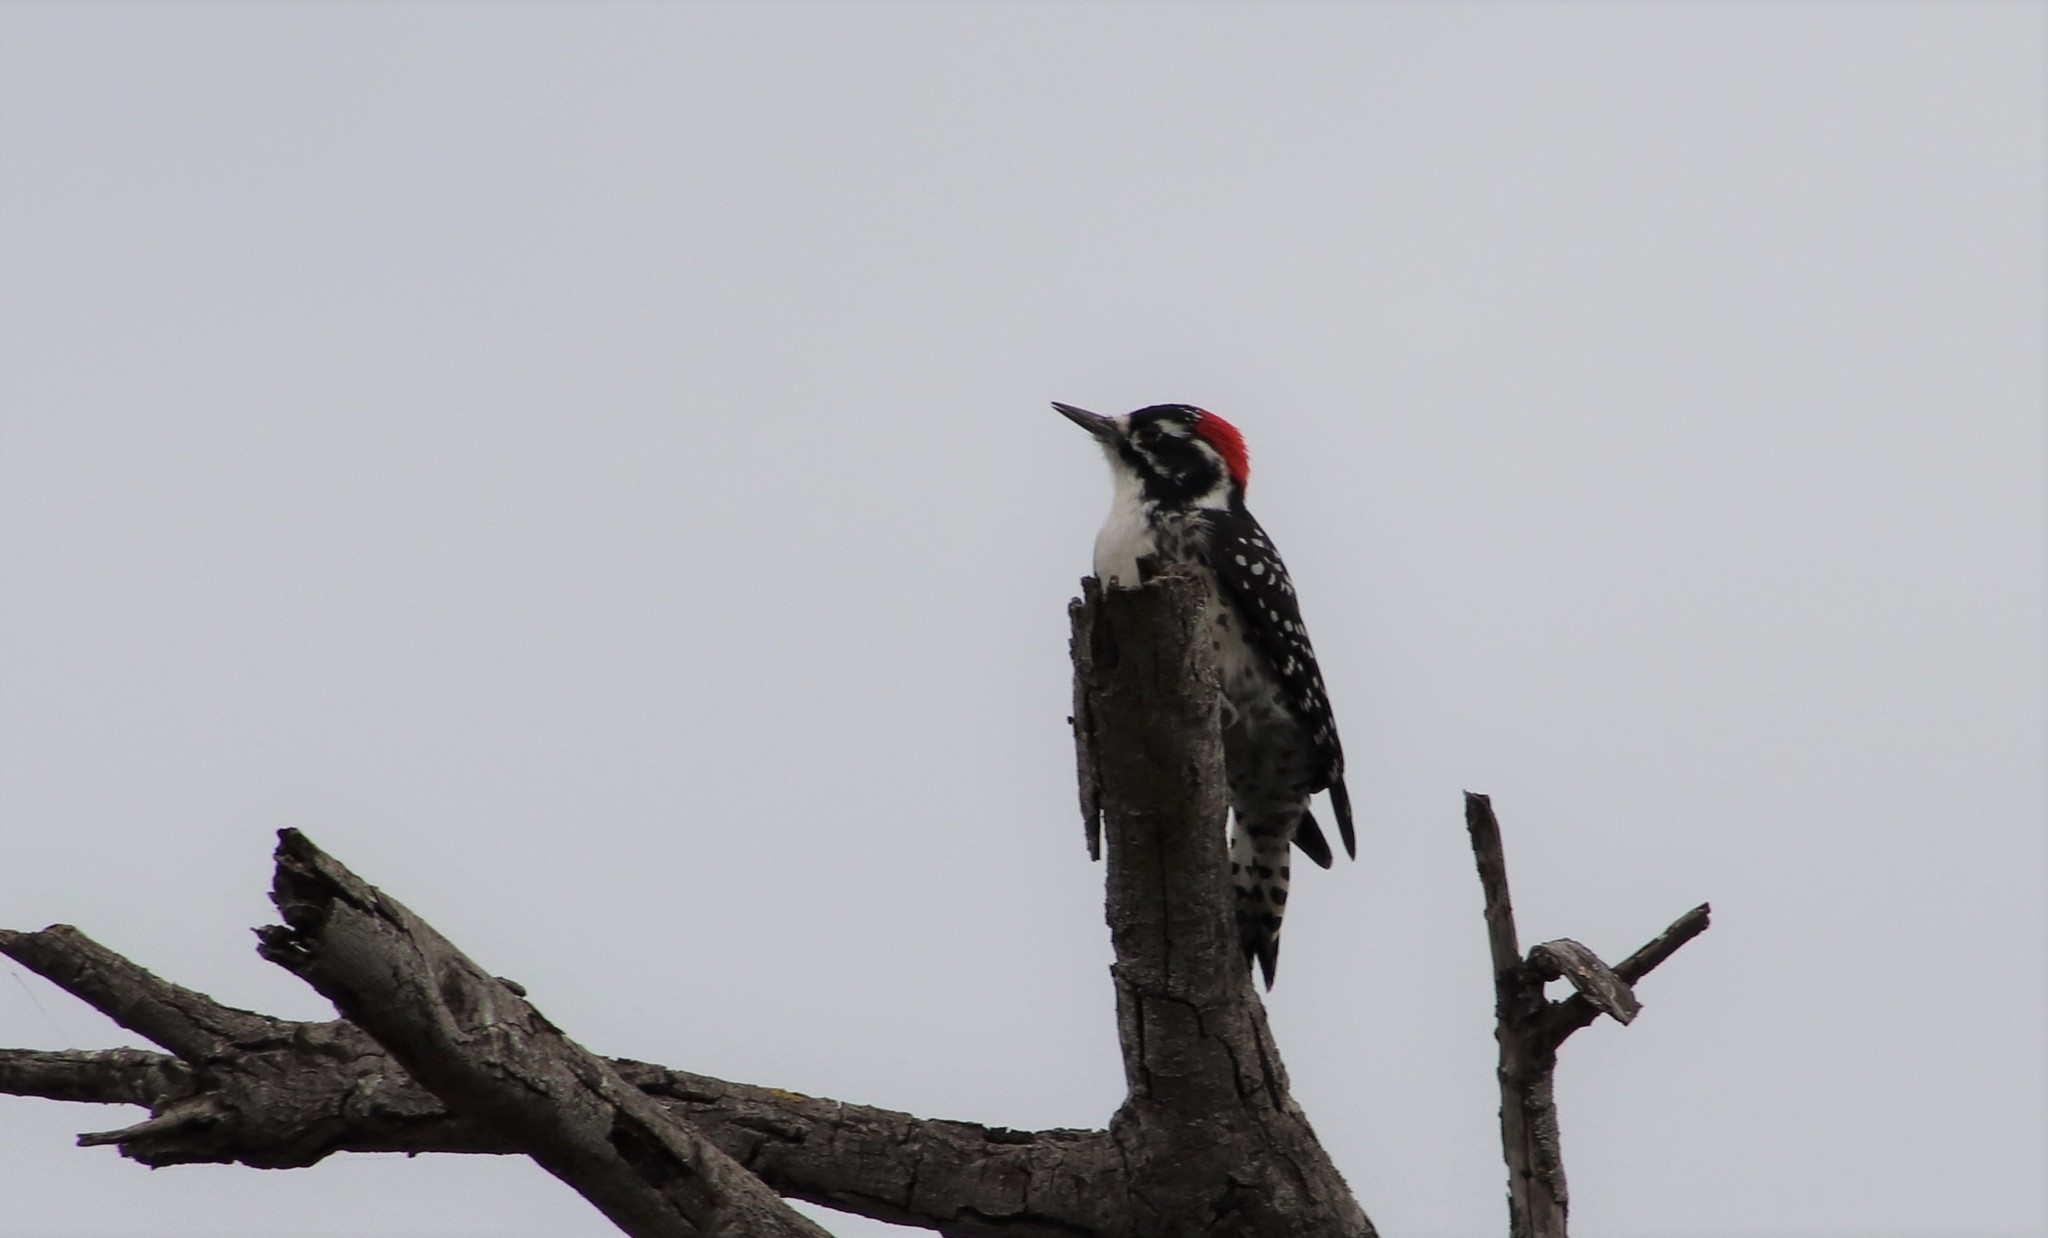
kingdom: Animalia
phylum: Chordata
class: Aves
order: Piciformes
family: Picidae
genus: Dryobates
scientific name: Dryobates nuttallii
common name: Nuttall's woodpecker
